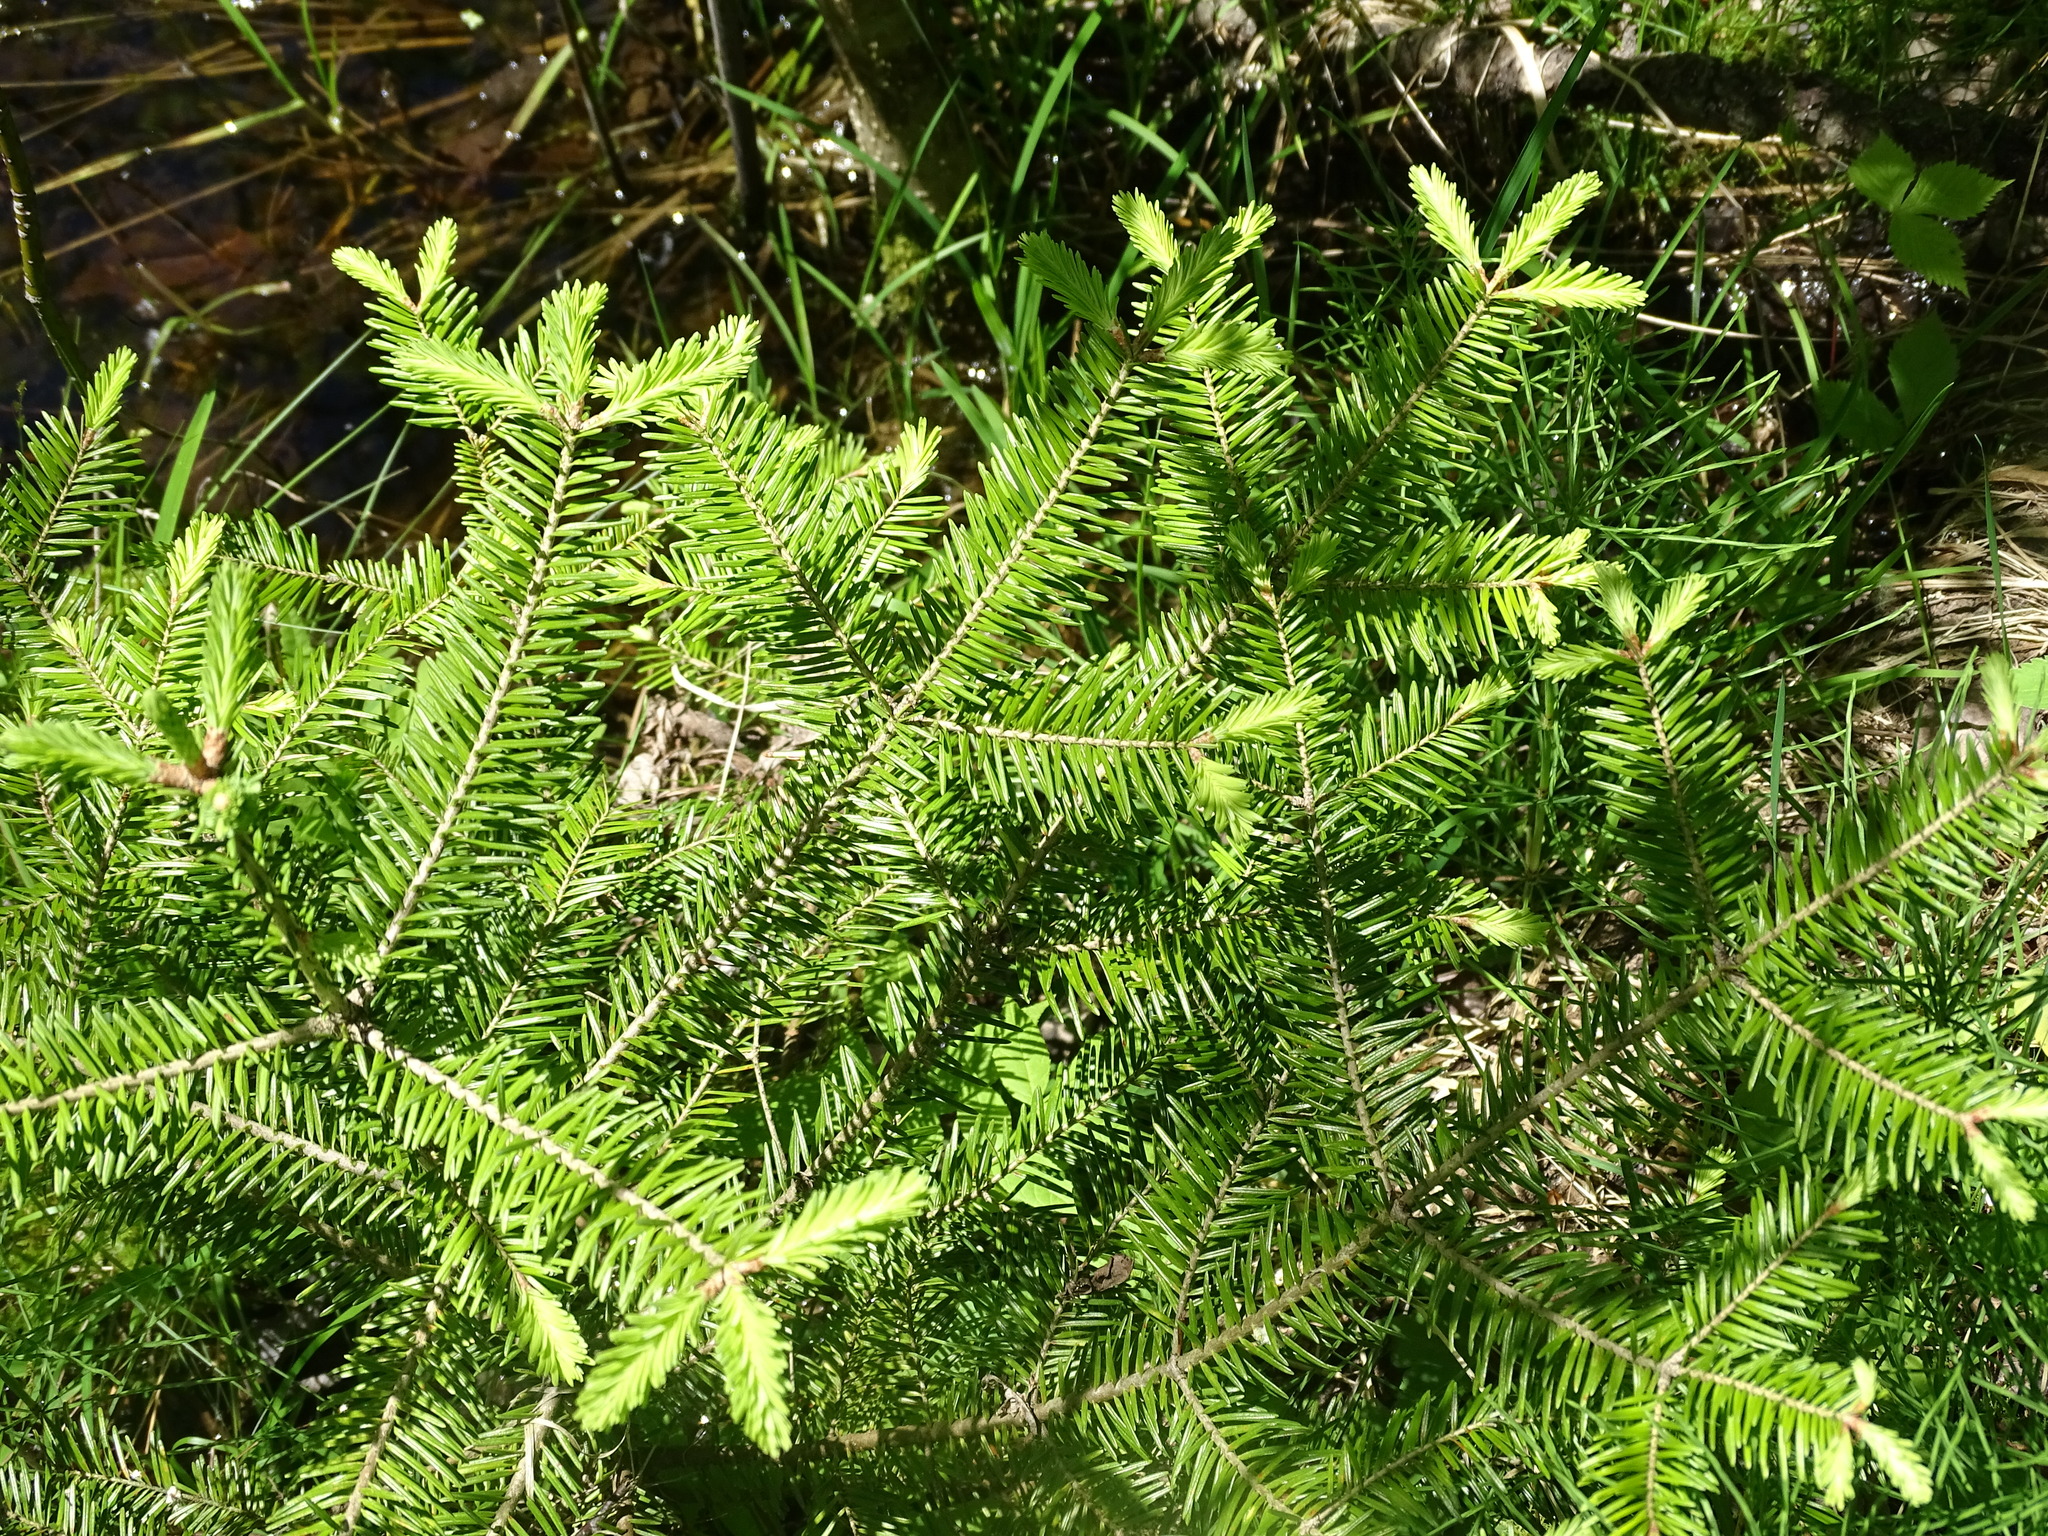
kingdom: Plantae
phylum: Tracheophyta
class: Pinopsida
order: Pinales
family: Pinaceae
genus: Abies
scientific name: Abies balsamea
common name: Balsam fir
